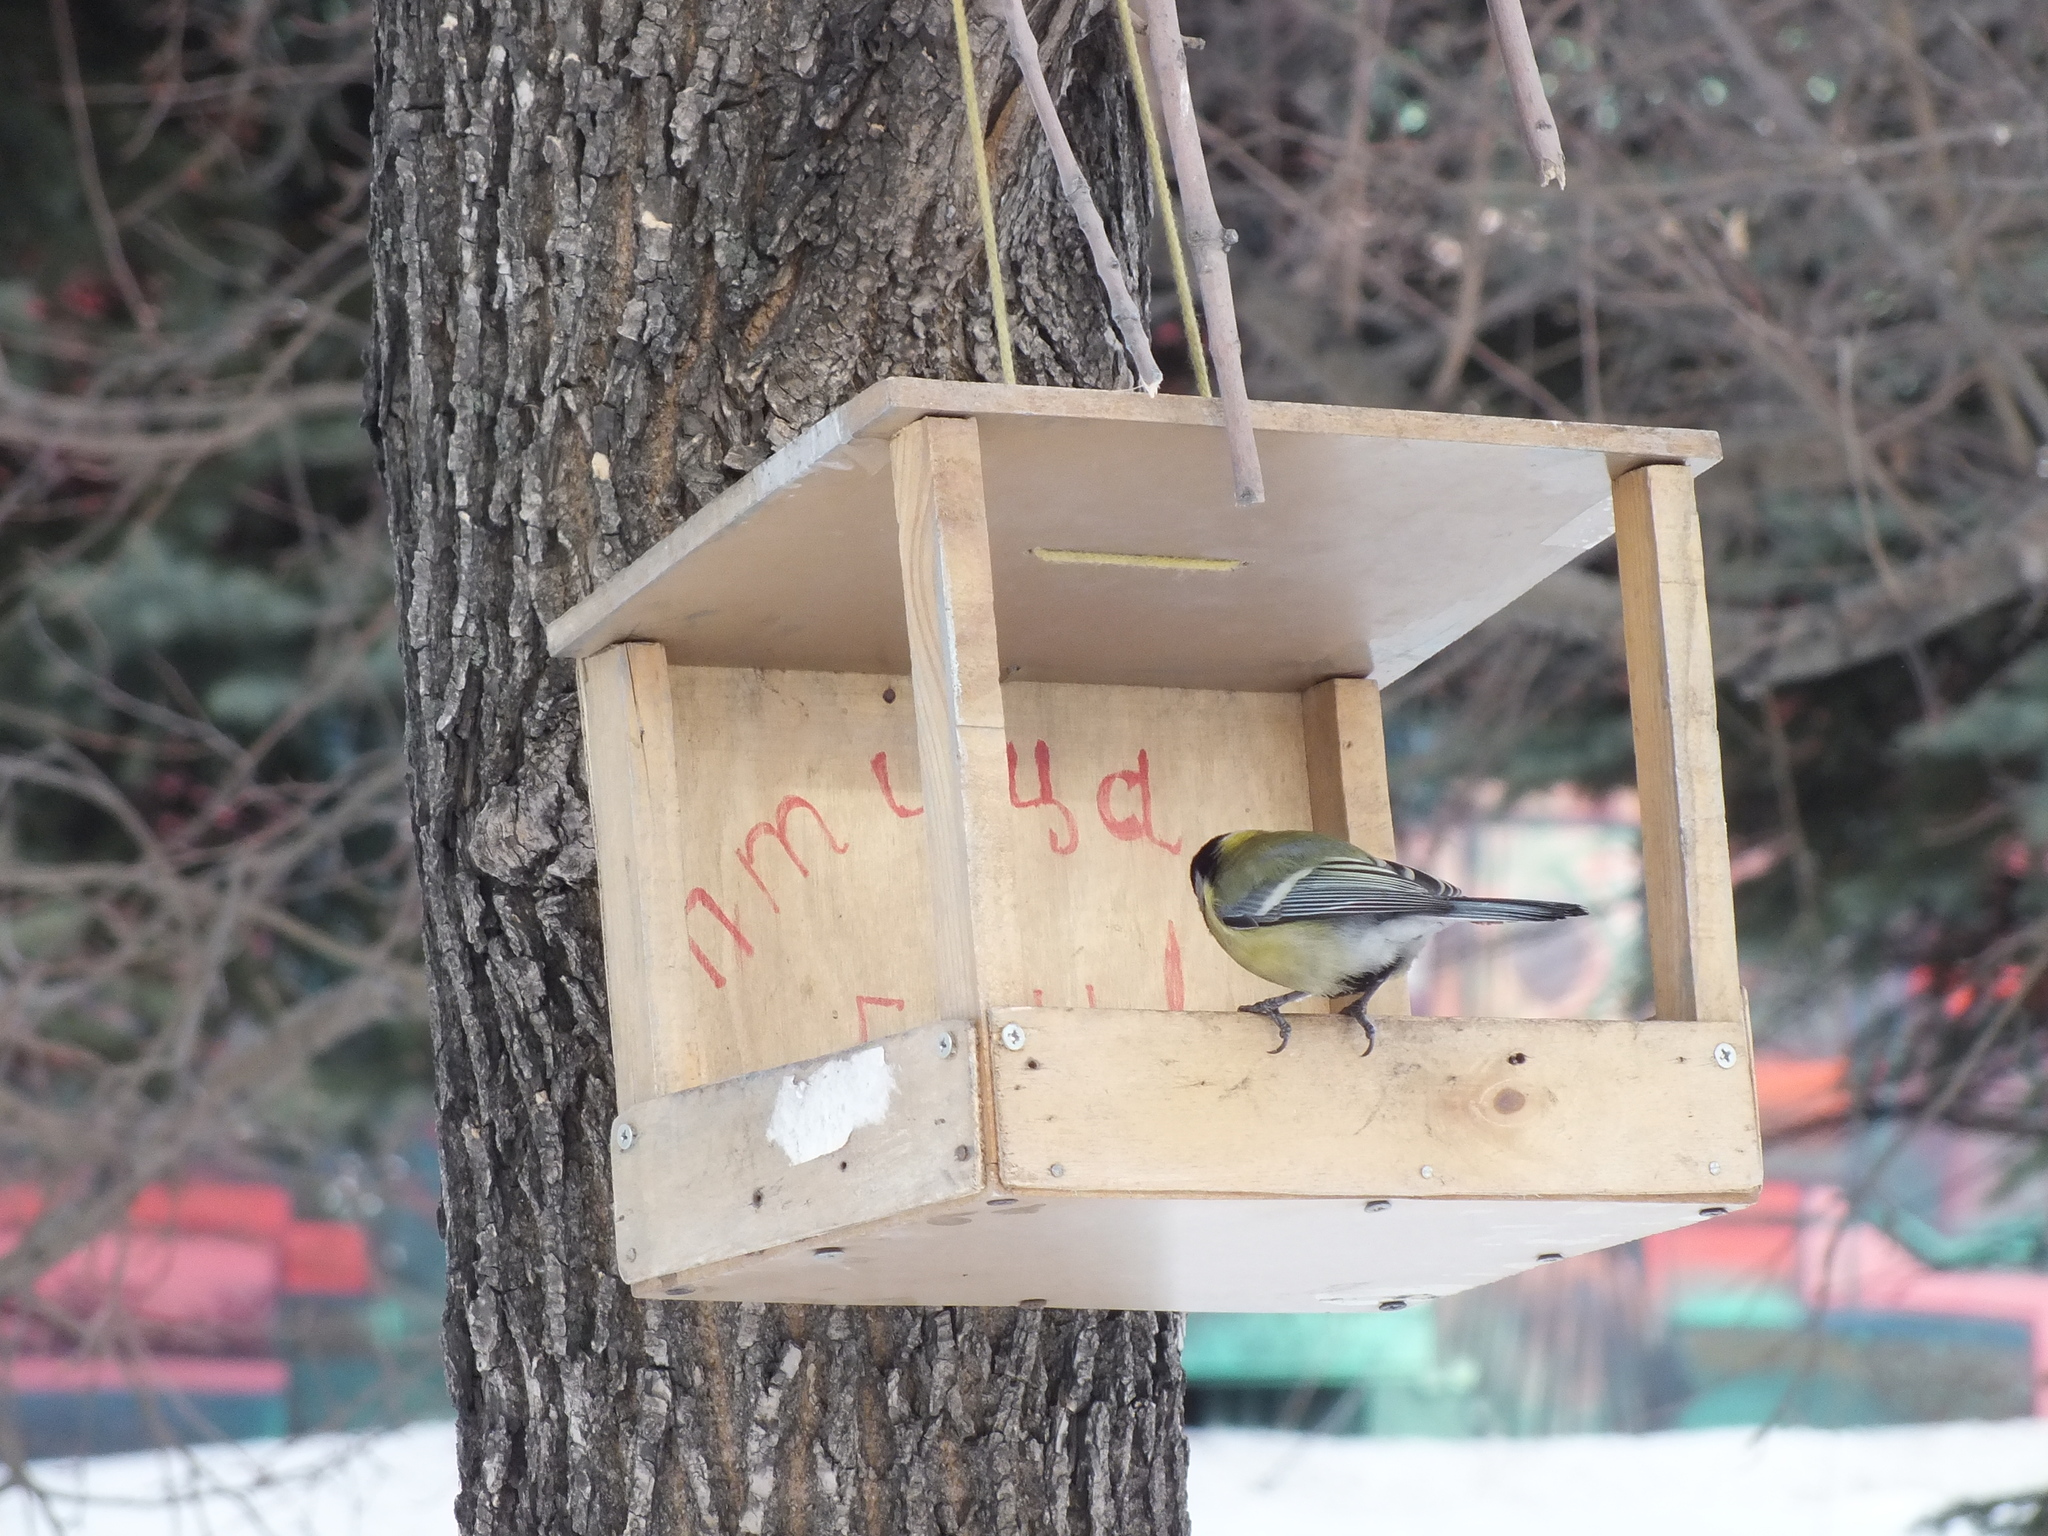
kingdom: Animalia
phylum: Chordata
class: Aves
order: Passeriformes
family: Paridae
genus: Parus
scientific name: Parus major
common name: Great tit
